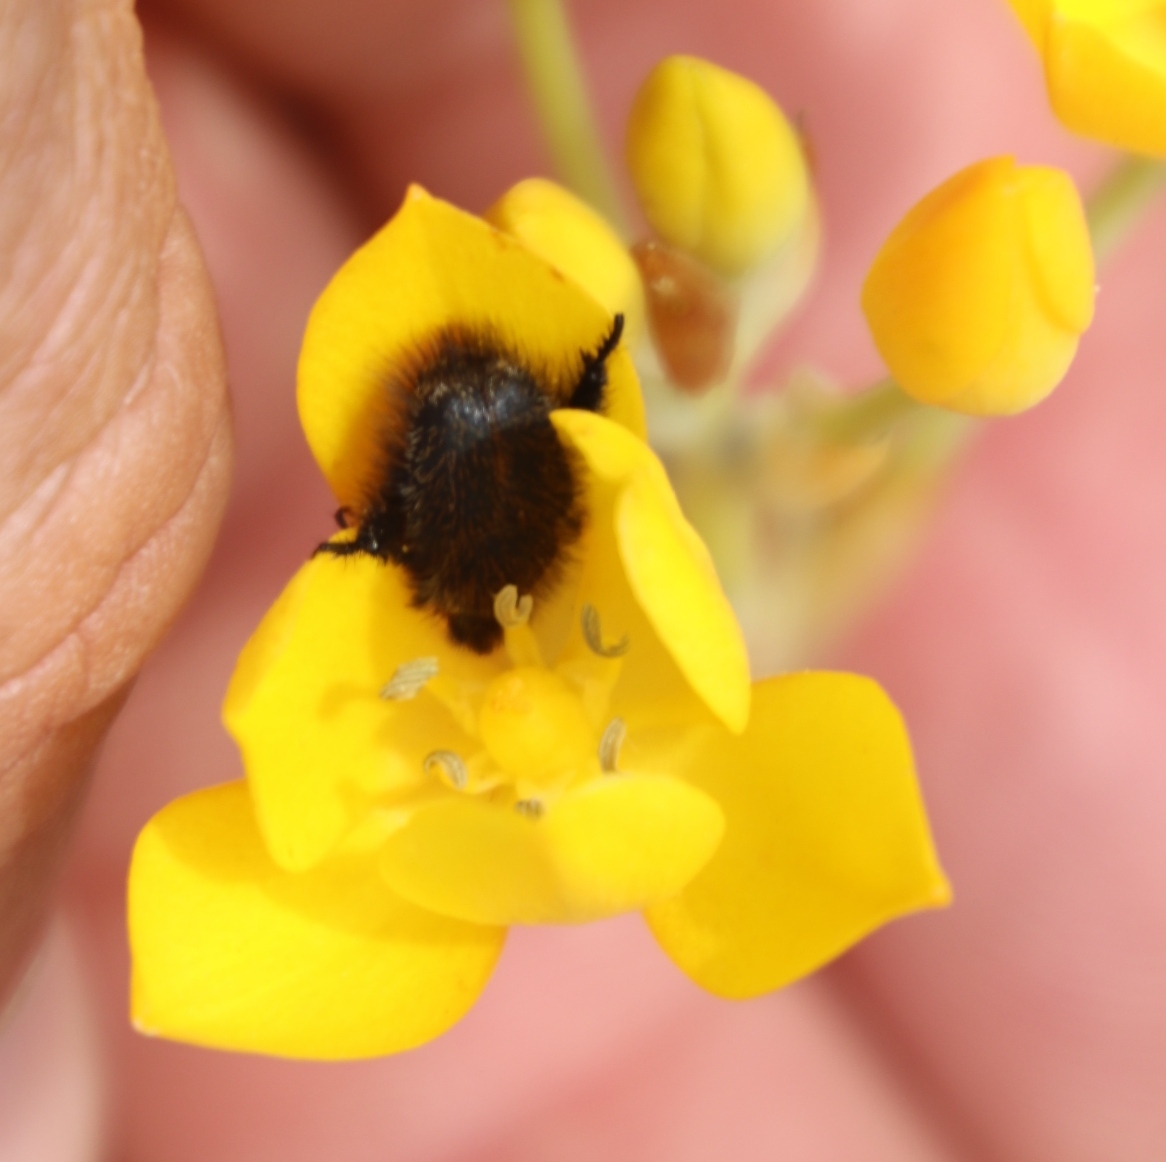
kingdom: Plantae
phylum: Tracheophyta
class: Liliopsida
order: Asparagales
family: Asparagaceae
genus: Ornithogalum
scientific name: Ornithogalum dubium
